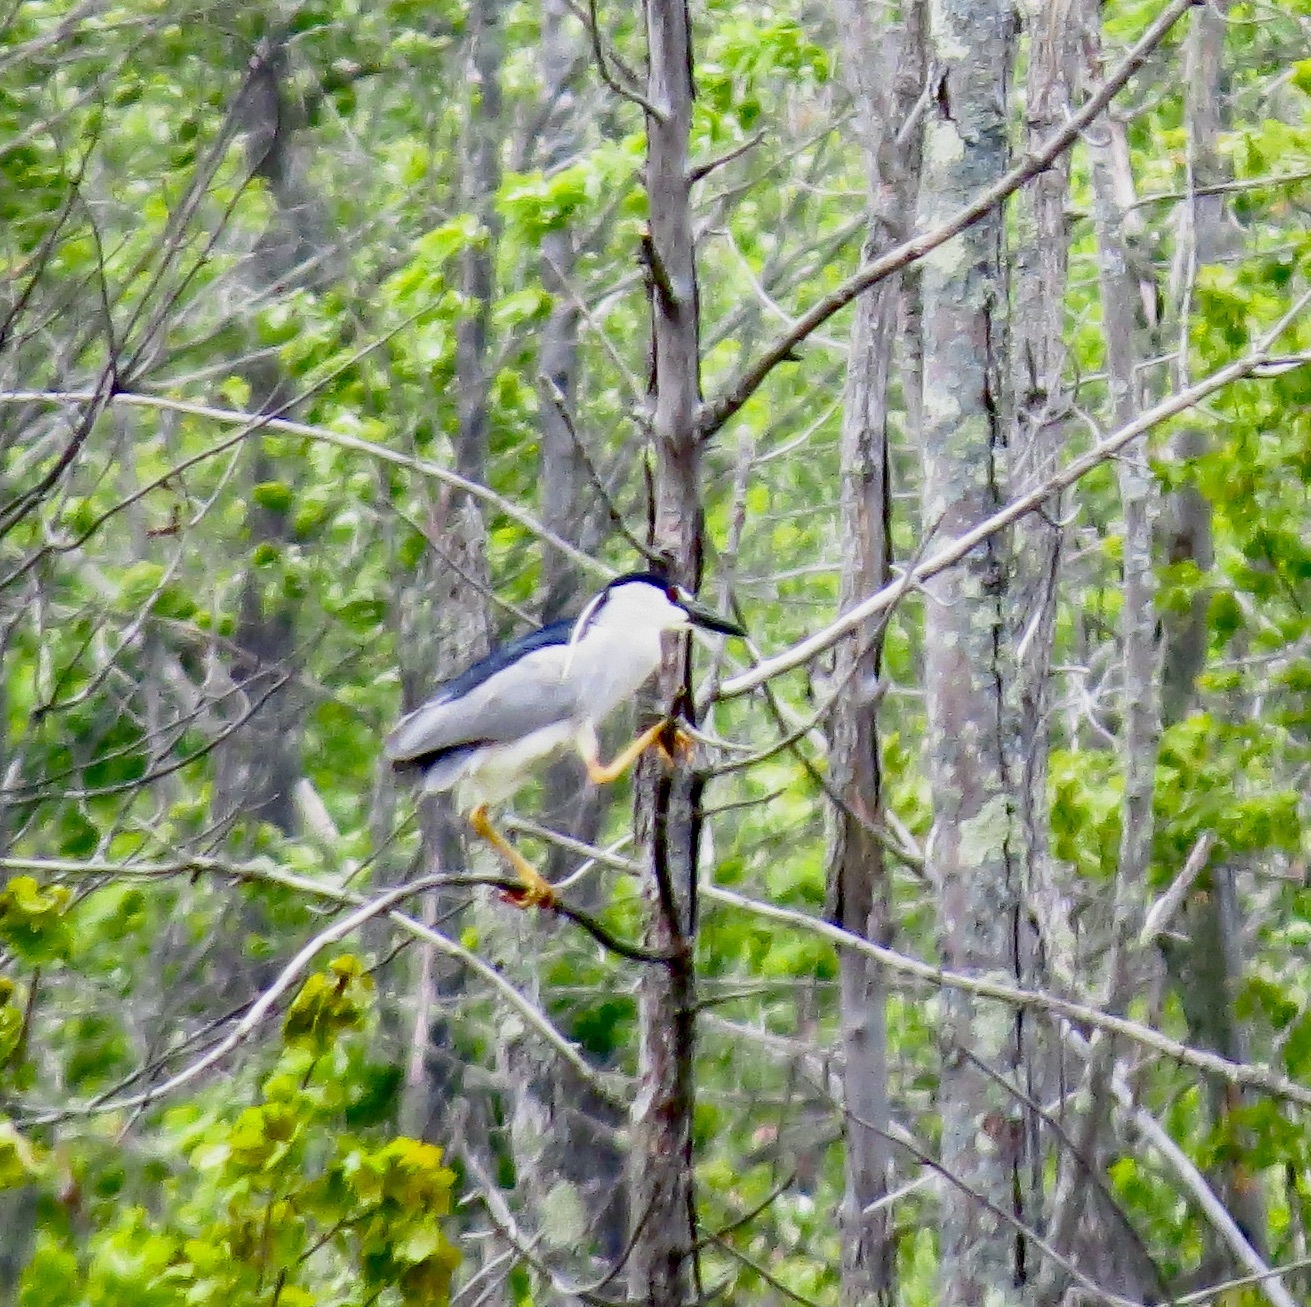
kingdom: Animalia
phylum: Chordata
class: Aves
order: Pelecaniformes
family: Ardeidae
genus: Nycticorax
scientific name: Nycticorax nycticorax
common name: Black-crowned night heron
